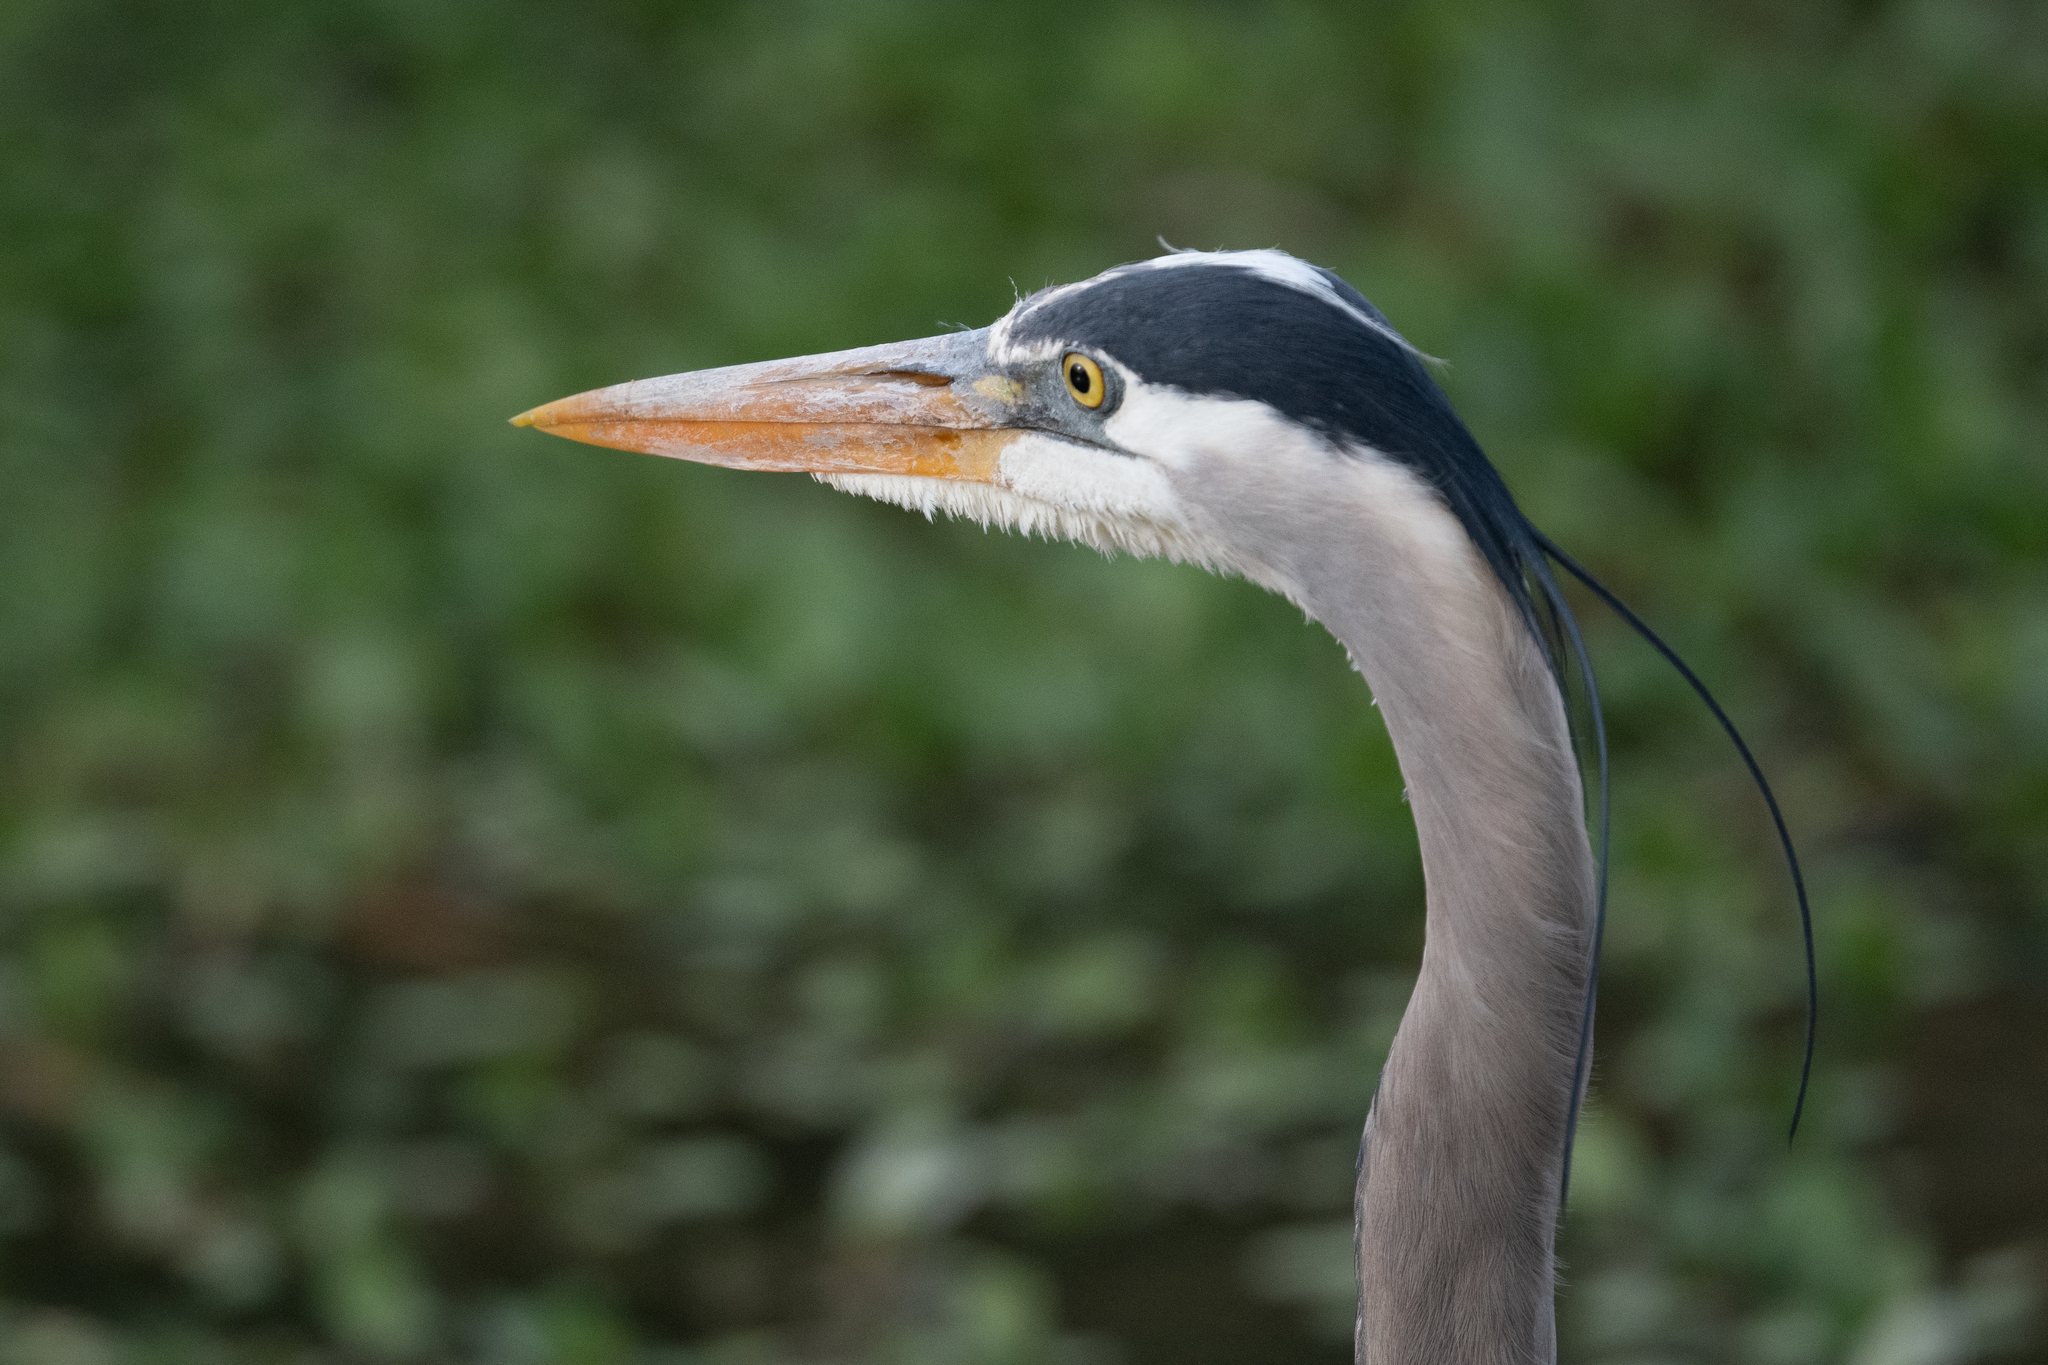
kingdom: Animalia
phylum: Chordata
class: Aves
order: Pelecaniformes
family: Ardeidae
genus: Ardea
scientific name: Ardea herodias
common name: Great blue heron
